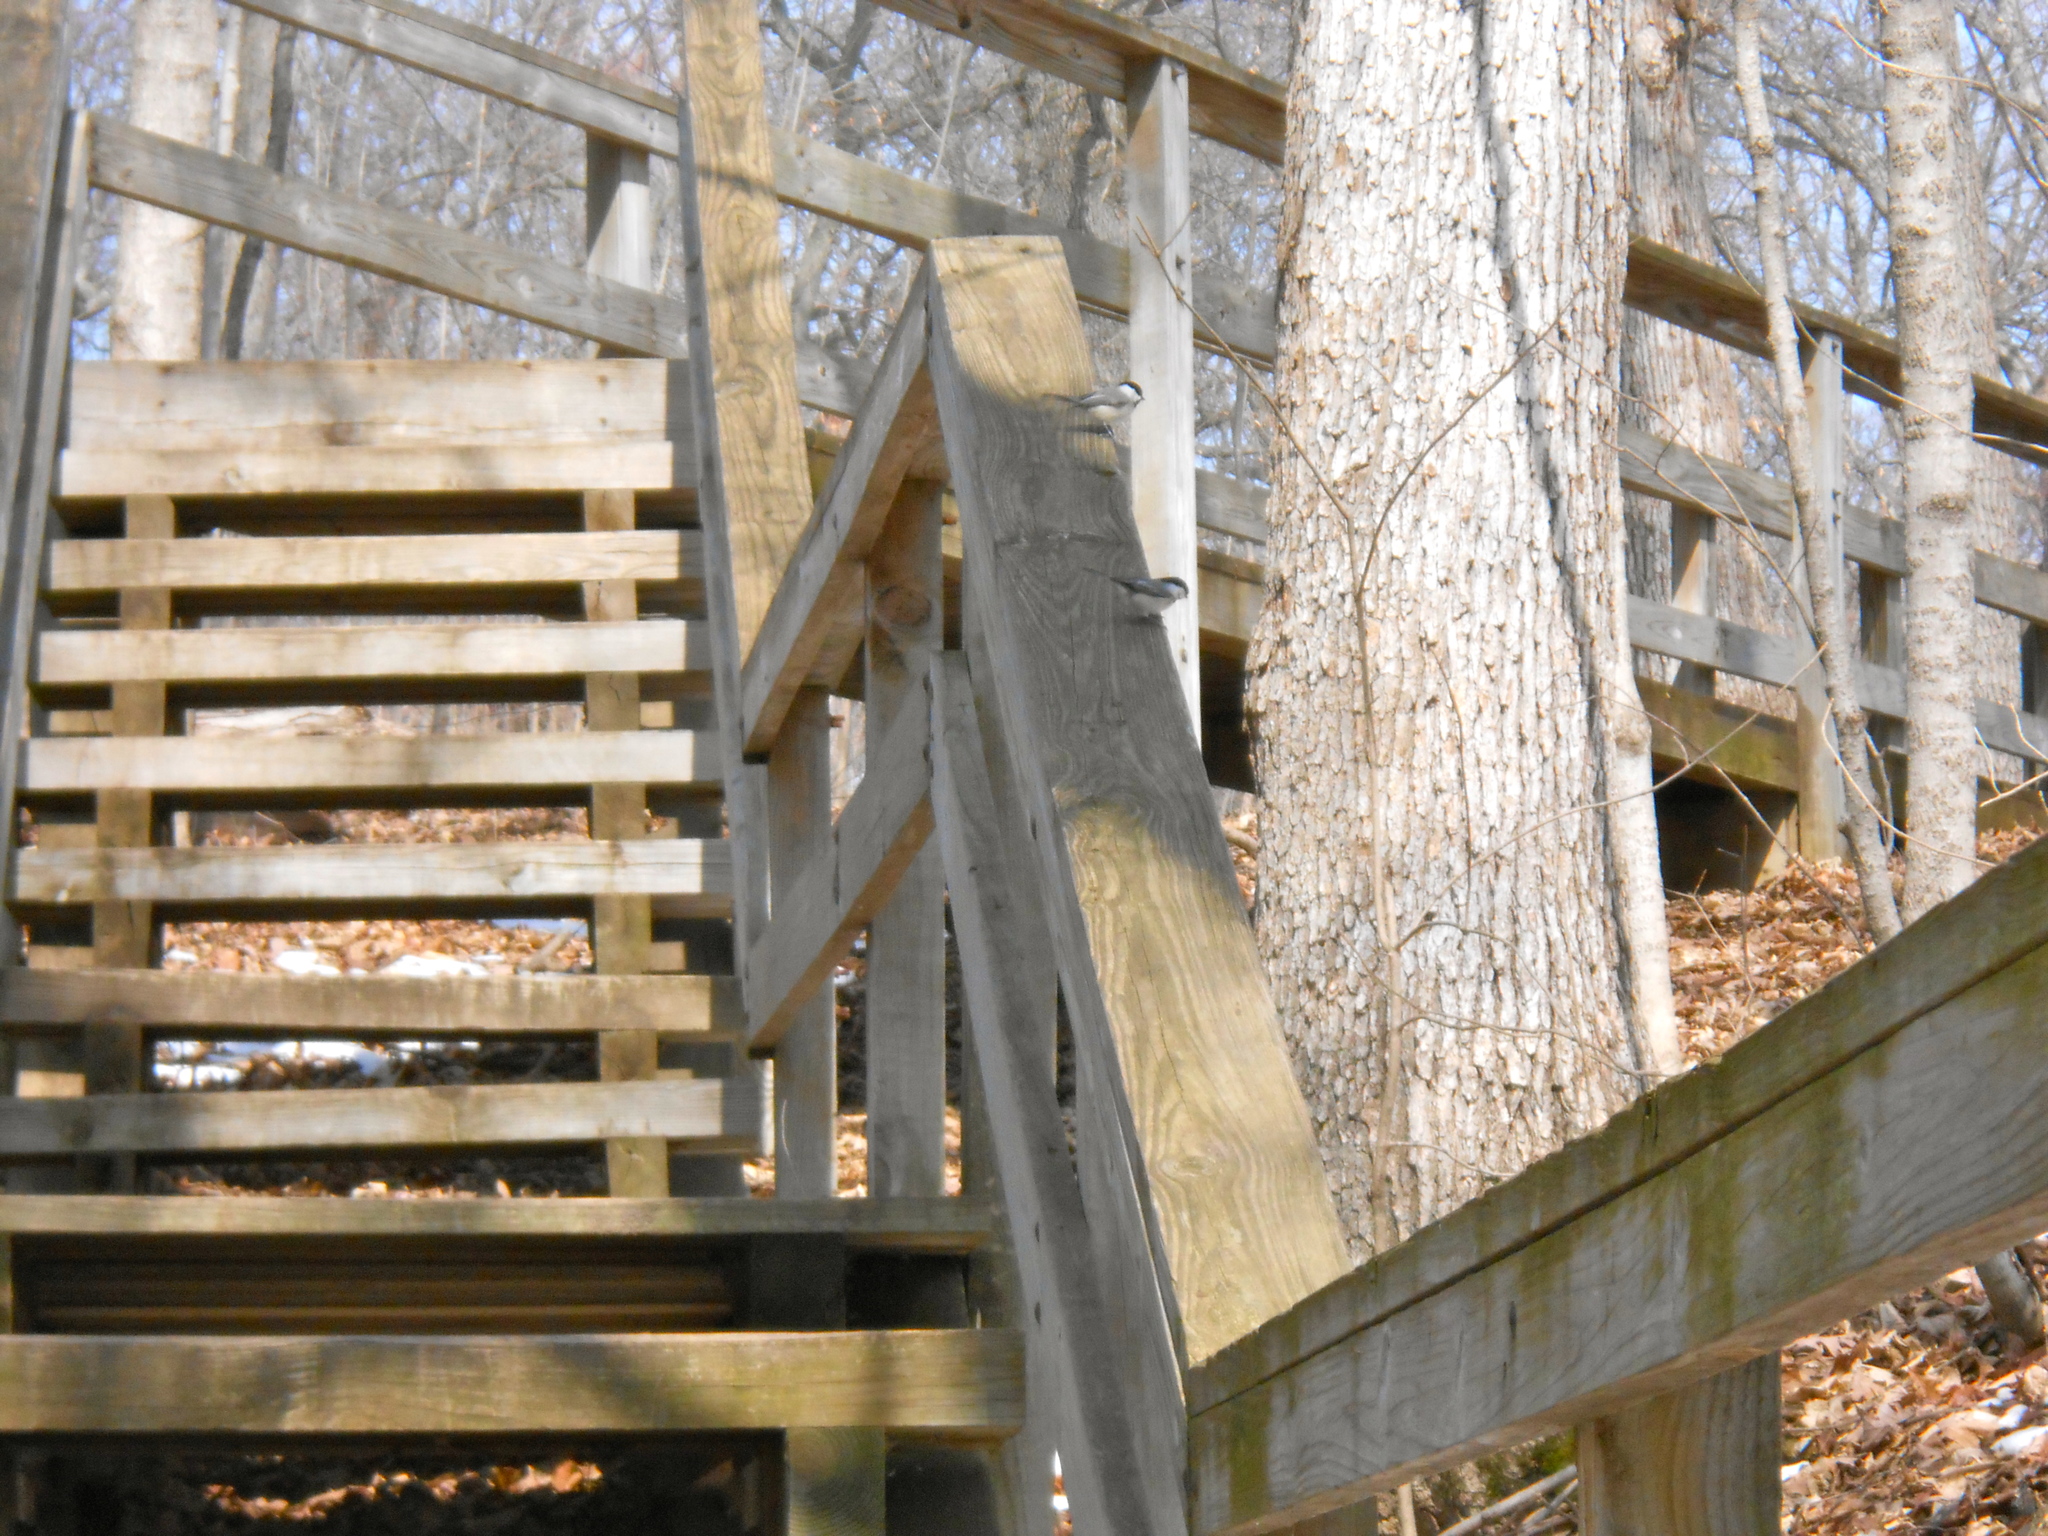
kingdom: Animalia
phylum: Chordata
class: Aves
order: Passeriformes
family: Paridae
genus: Poecile
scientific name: Poecile carolinensis
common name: Carolina chickadee
